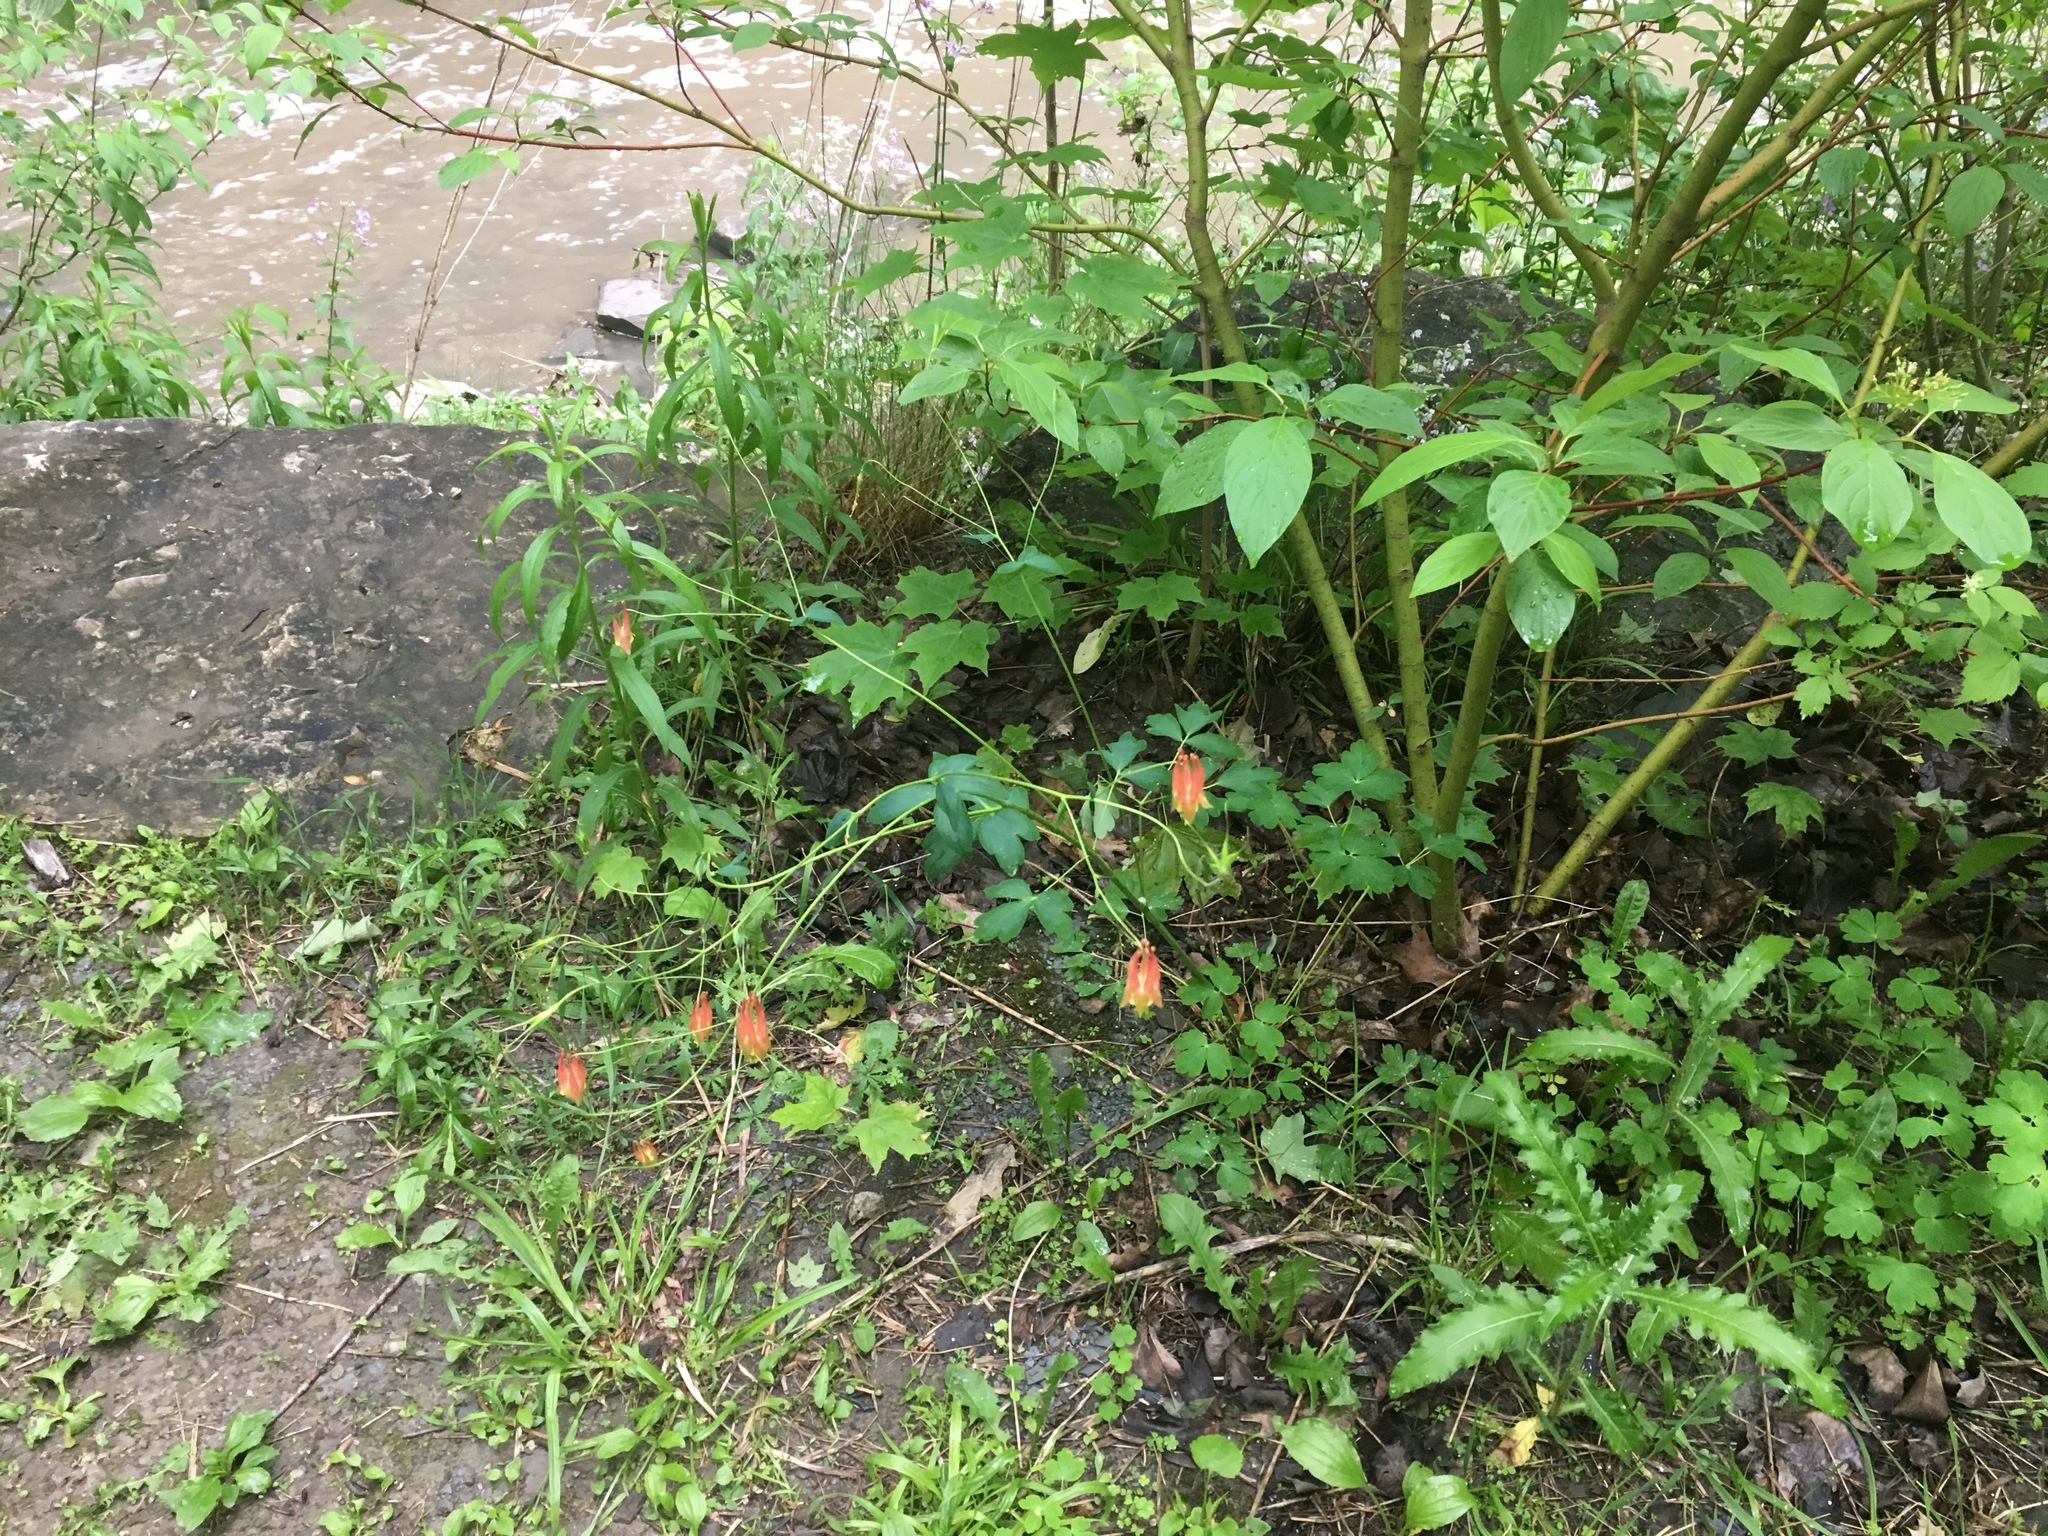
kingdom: Plantae
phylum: Tracheophyta
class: Magnoliopsida
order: Ranunculales
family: Ranunculaceae
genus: Aquilegia
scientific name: Aquilegia canadensis
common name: American columbine
